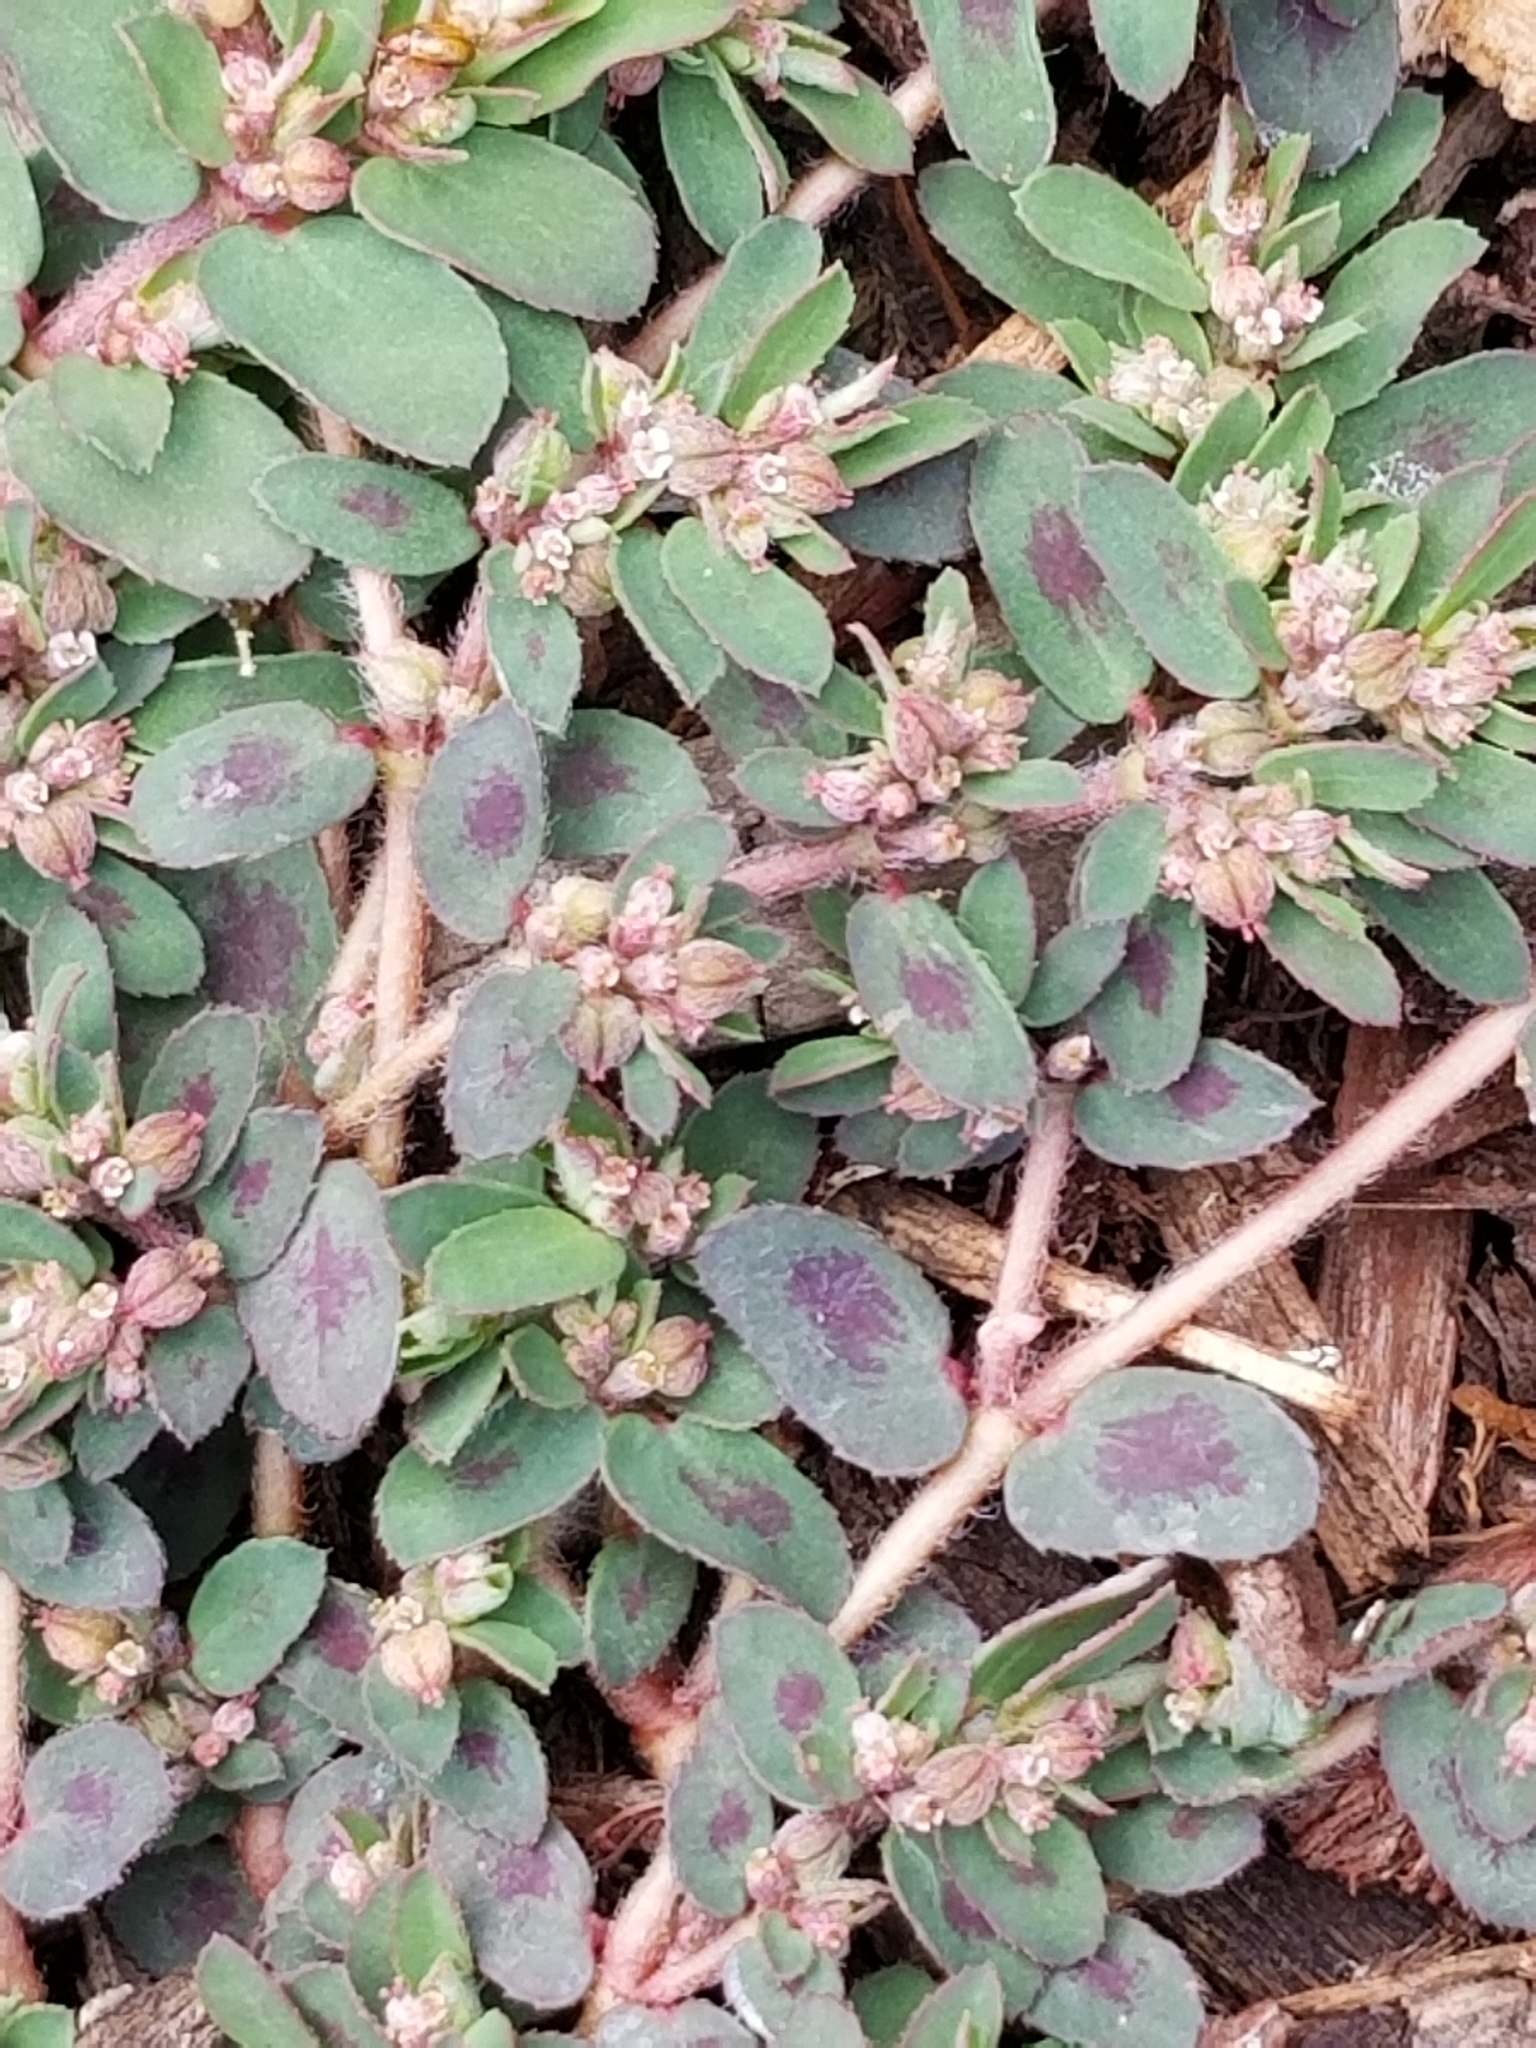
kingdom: Plantae
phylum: Tracheophyta
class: Magnoliopsida
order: Malpighiales
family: Euphorbiaceae
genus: Euphorbia
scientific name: Euphorbia maculata
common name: Spotted spurge
